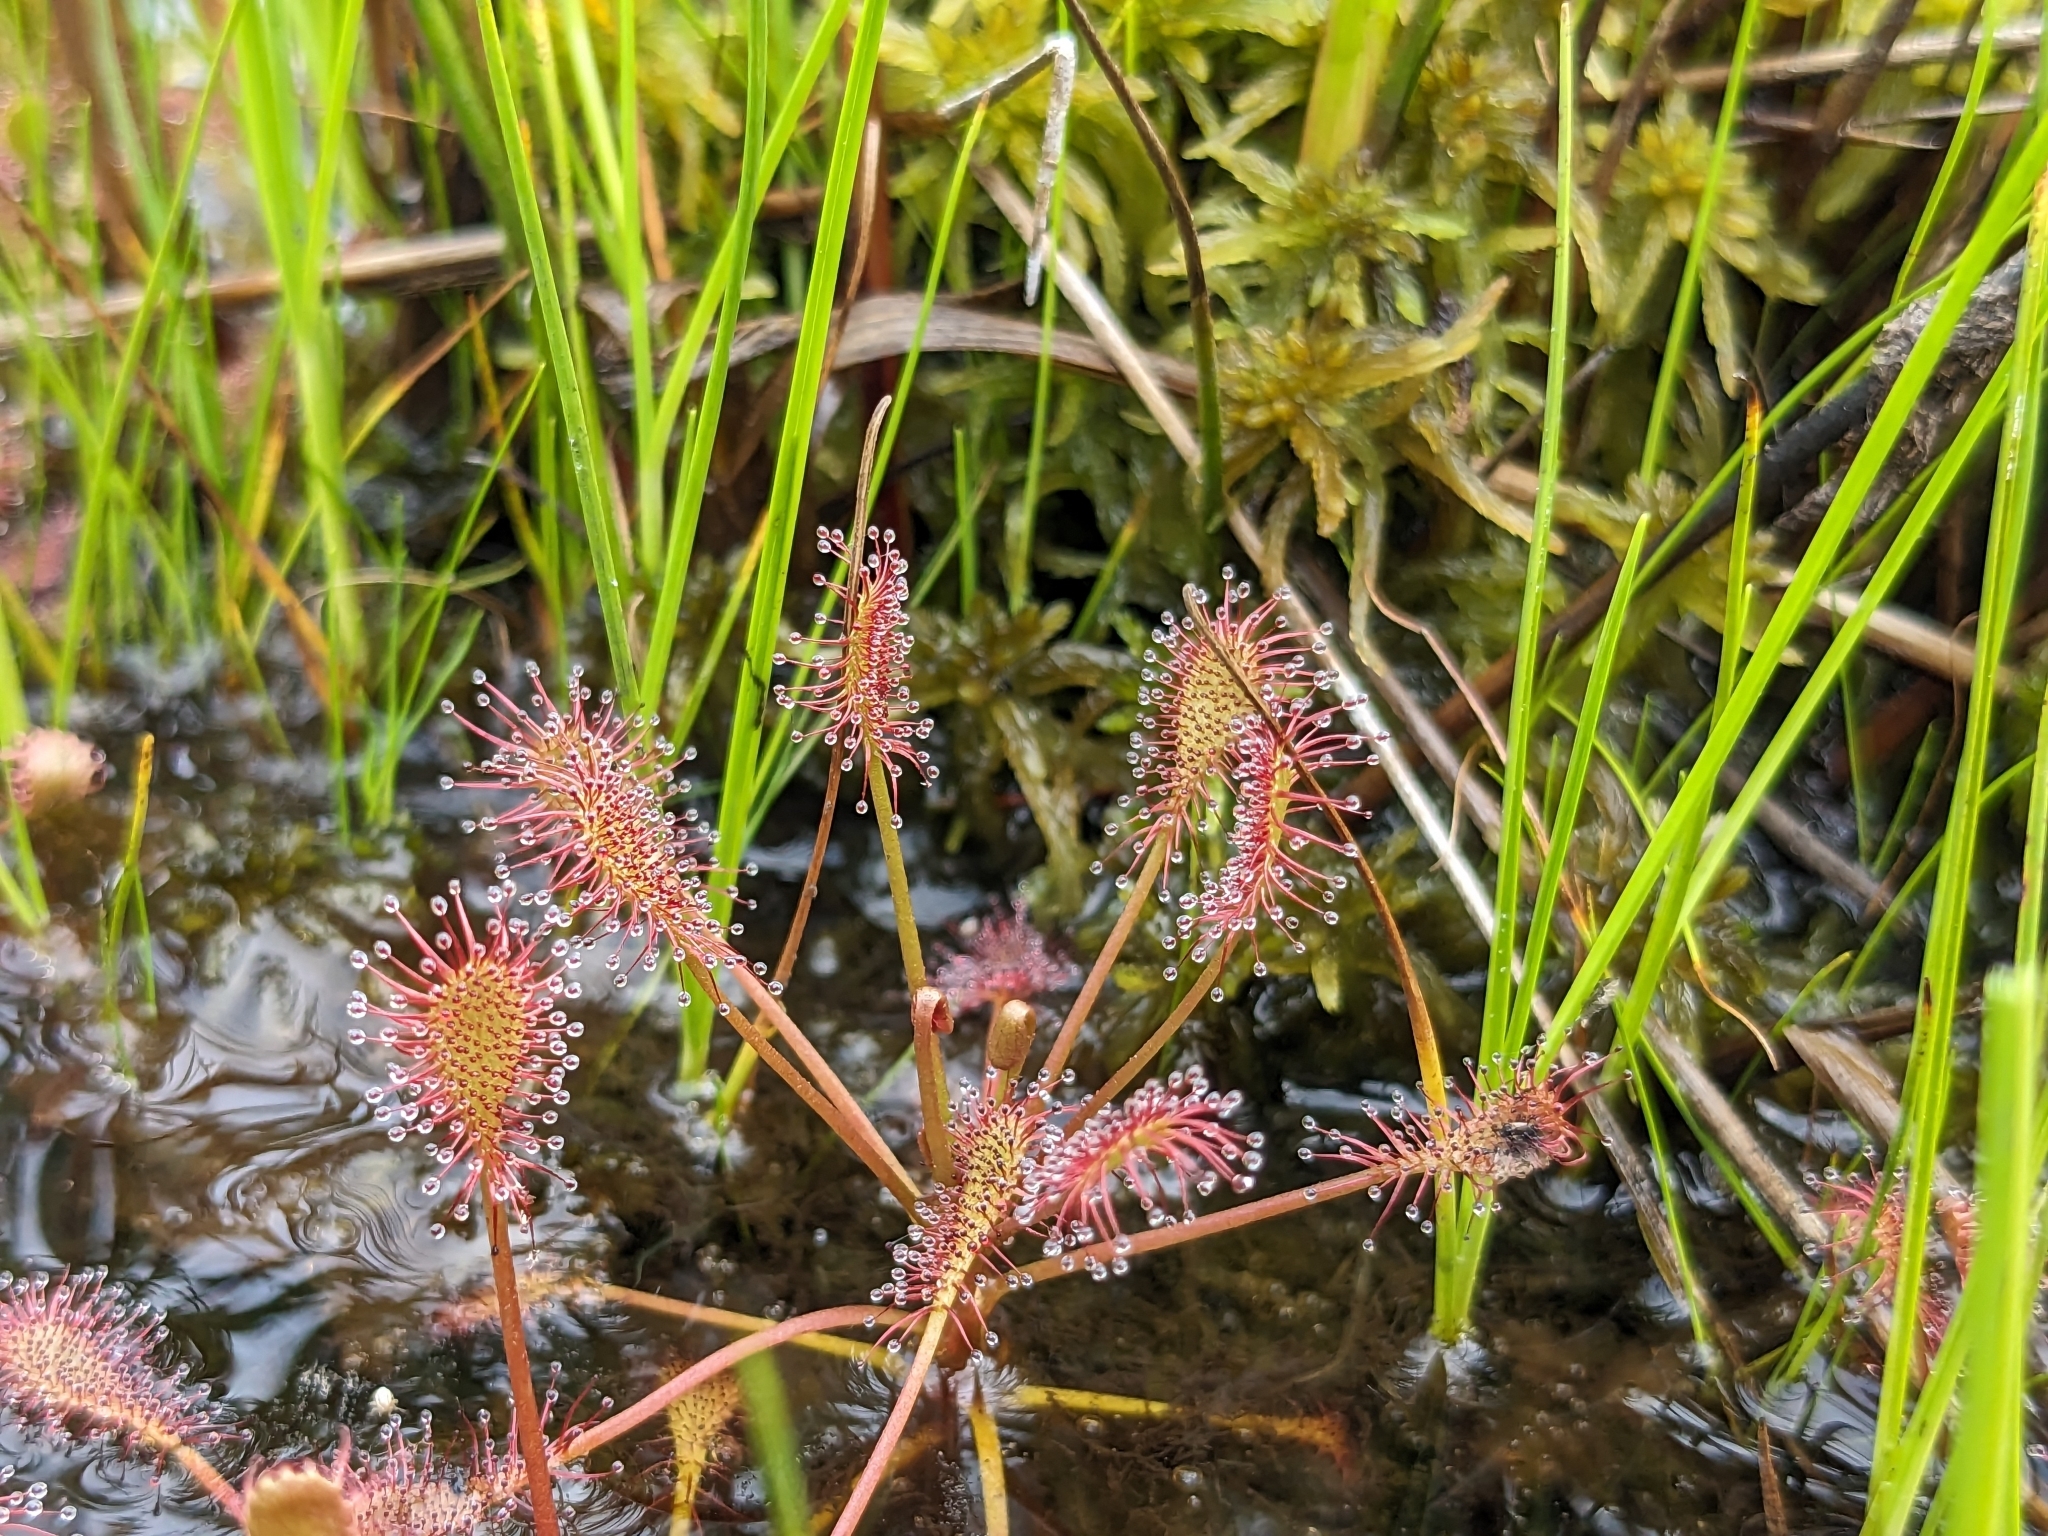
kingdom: Plantae
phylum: Tracheophyta
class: Magnoliopsida
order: Caryophyllales
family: Droseraceae
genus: Drosera
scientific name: Drosera intermedia
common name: Oblong-leaved sundew
